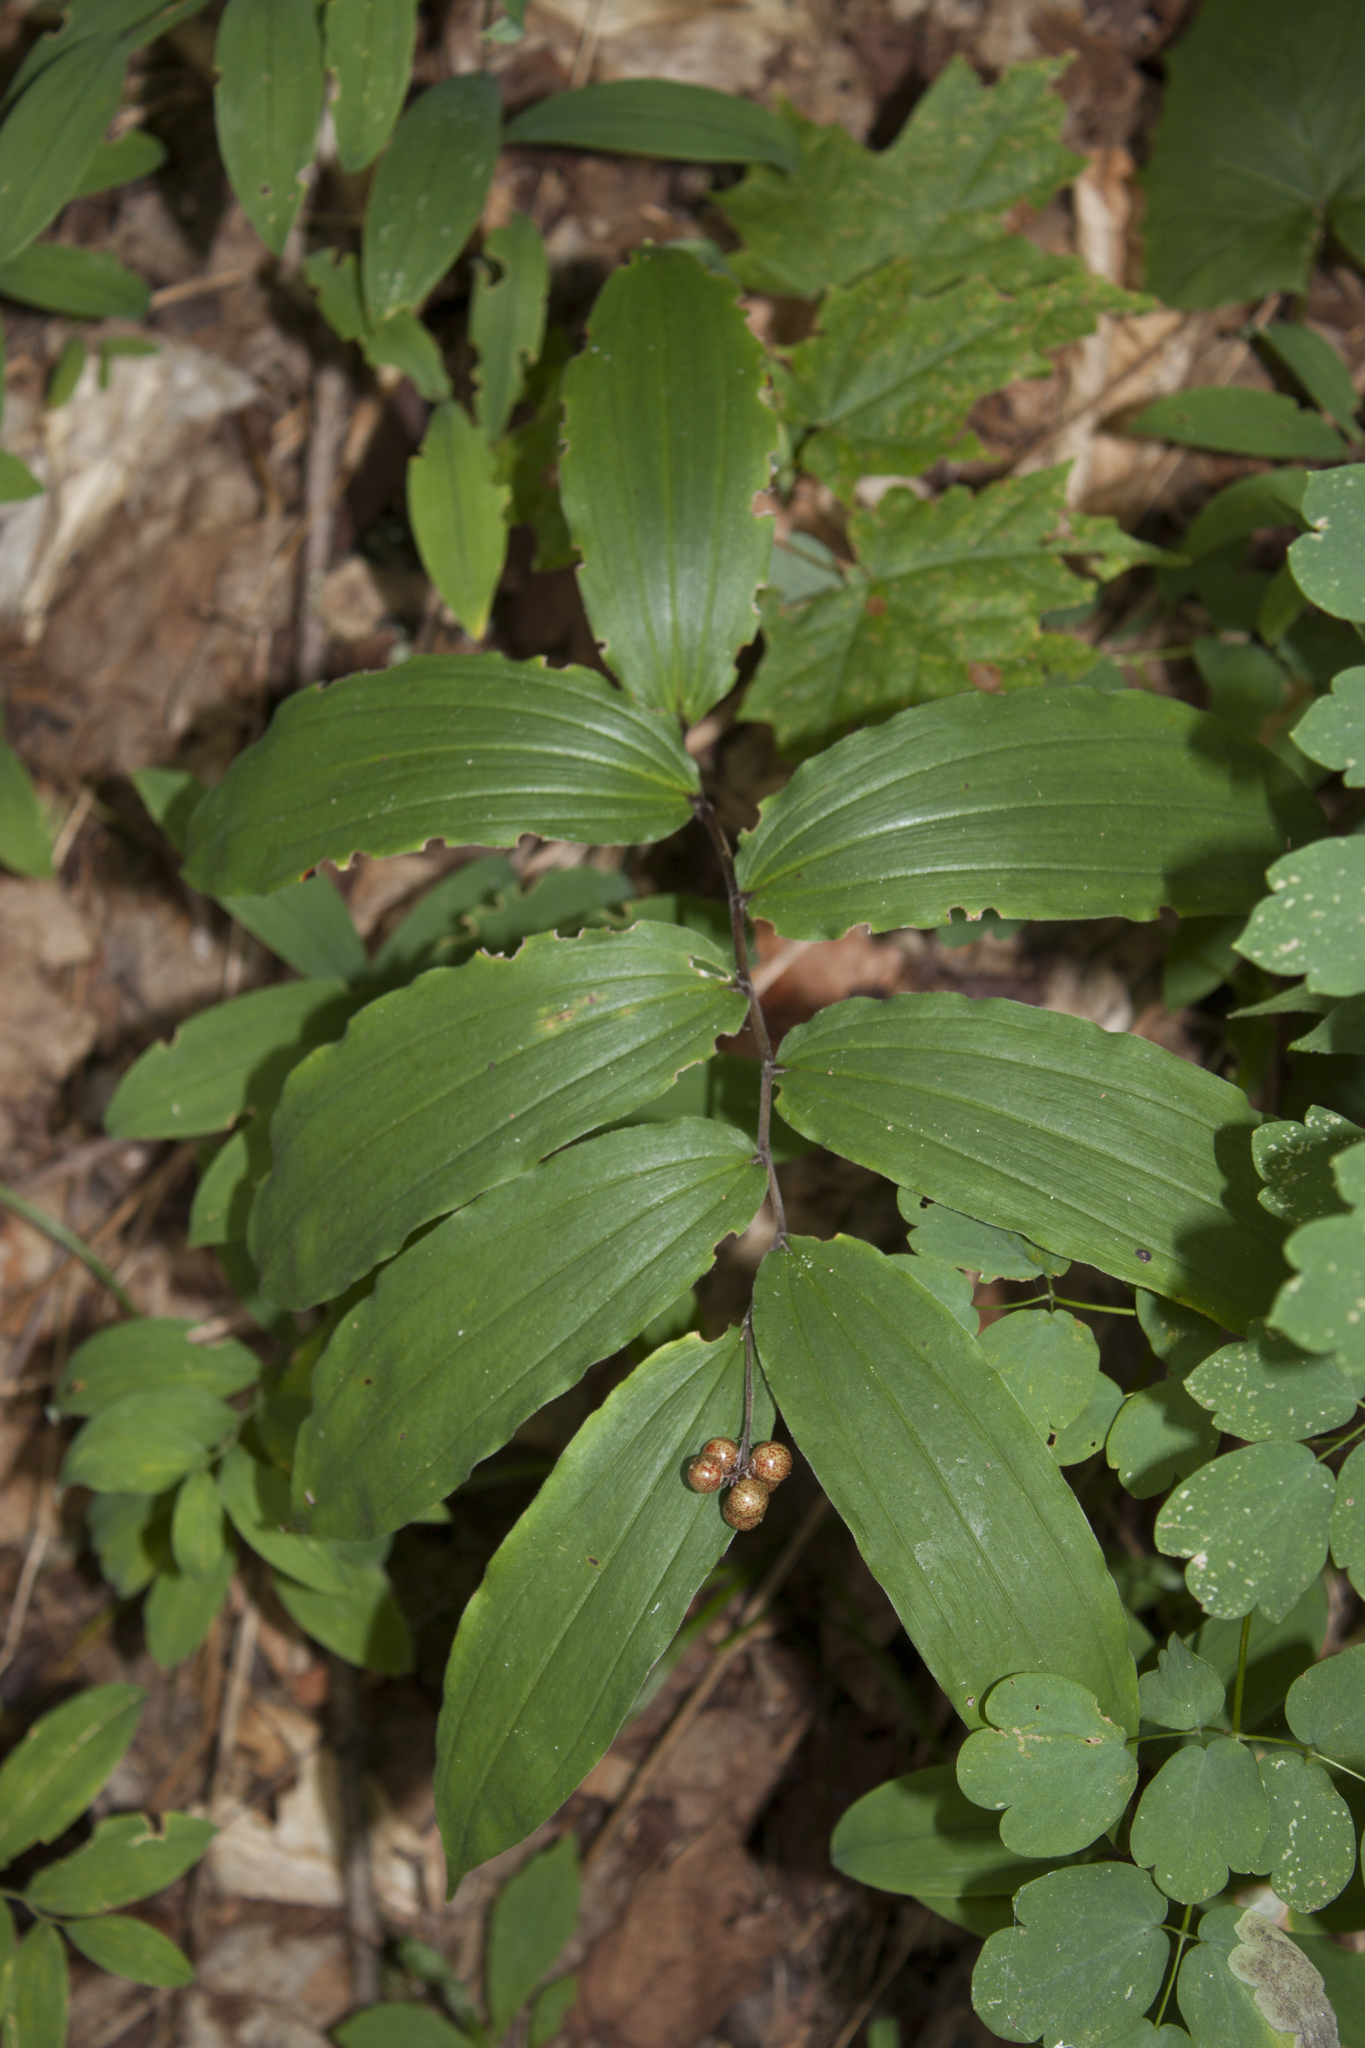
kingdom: Plantae
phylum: Tracheophyta
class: Liliopsida
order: Asparagales
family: Asparagaceae
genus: Maianthemum
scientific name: Maianthemum racemosum
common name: False spikenard
